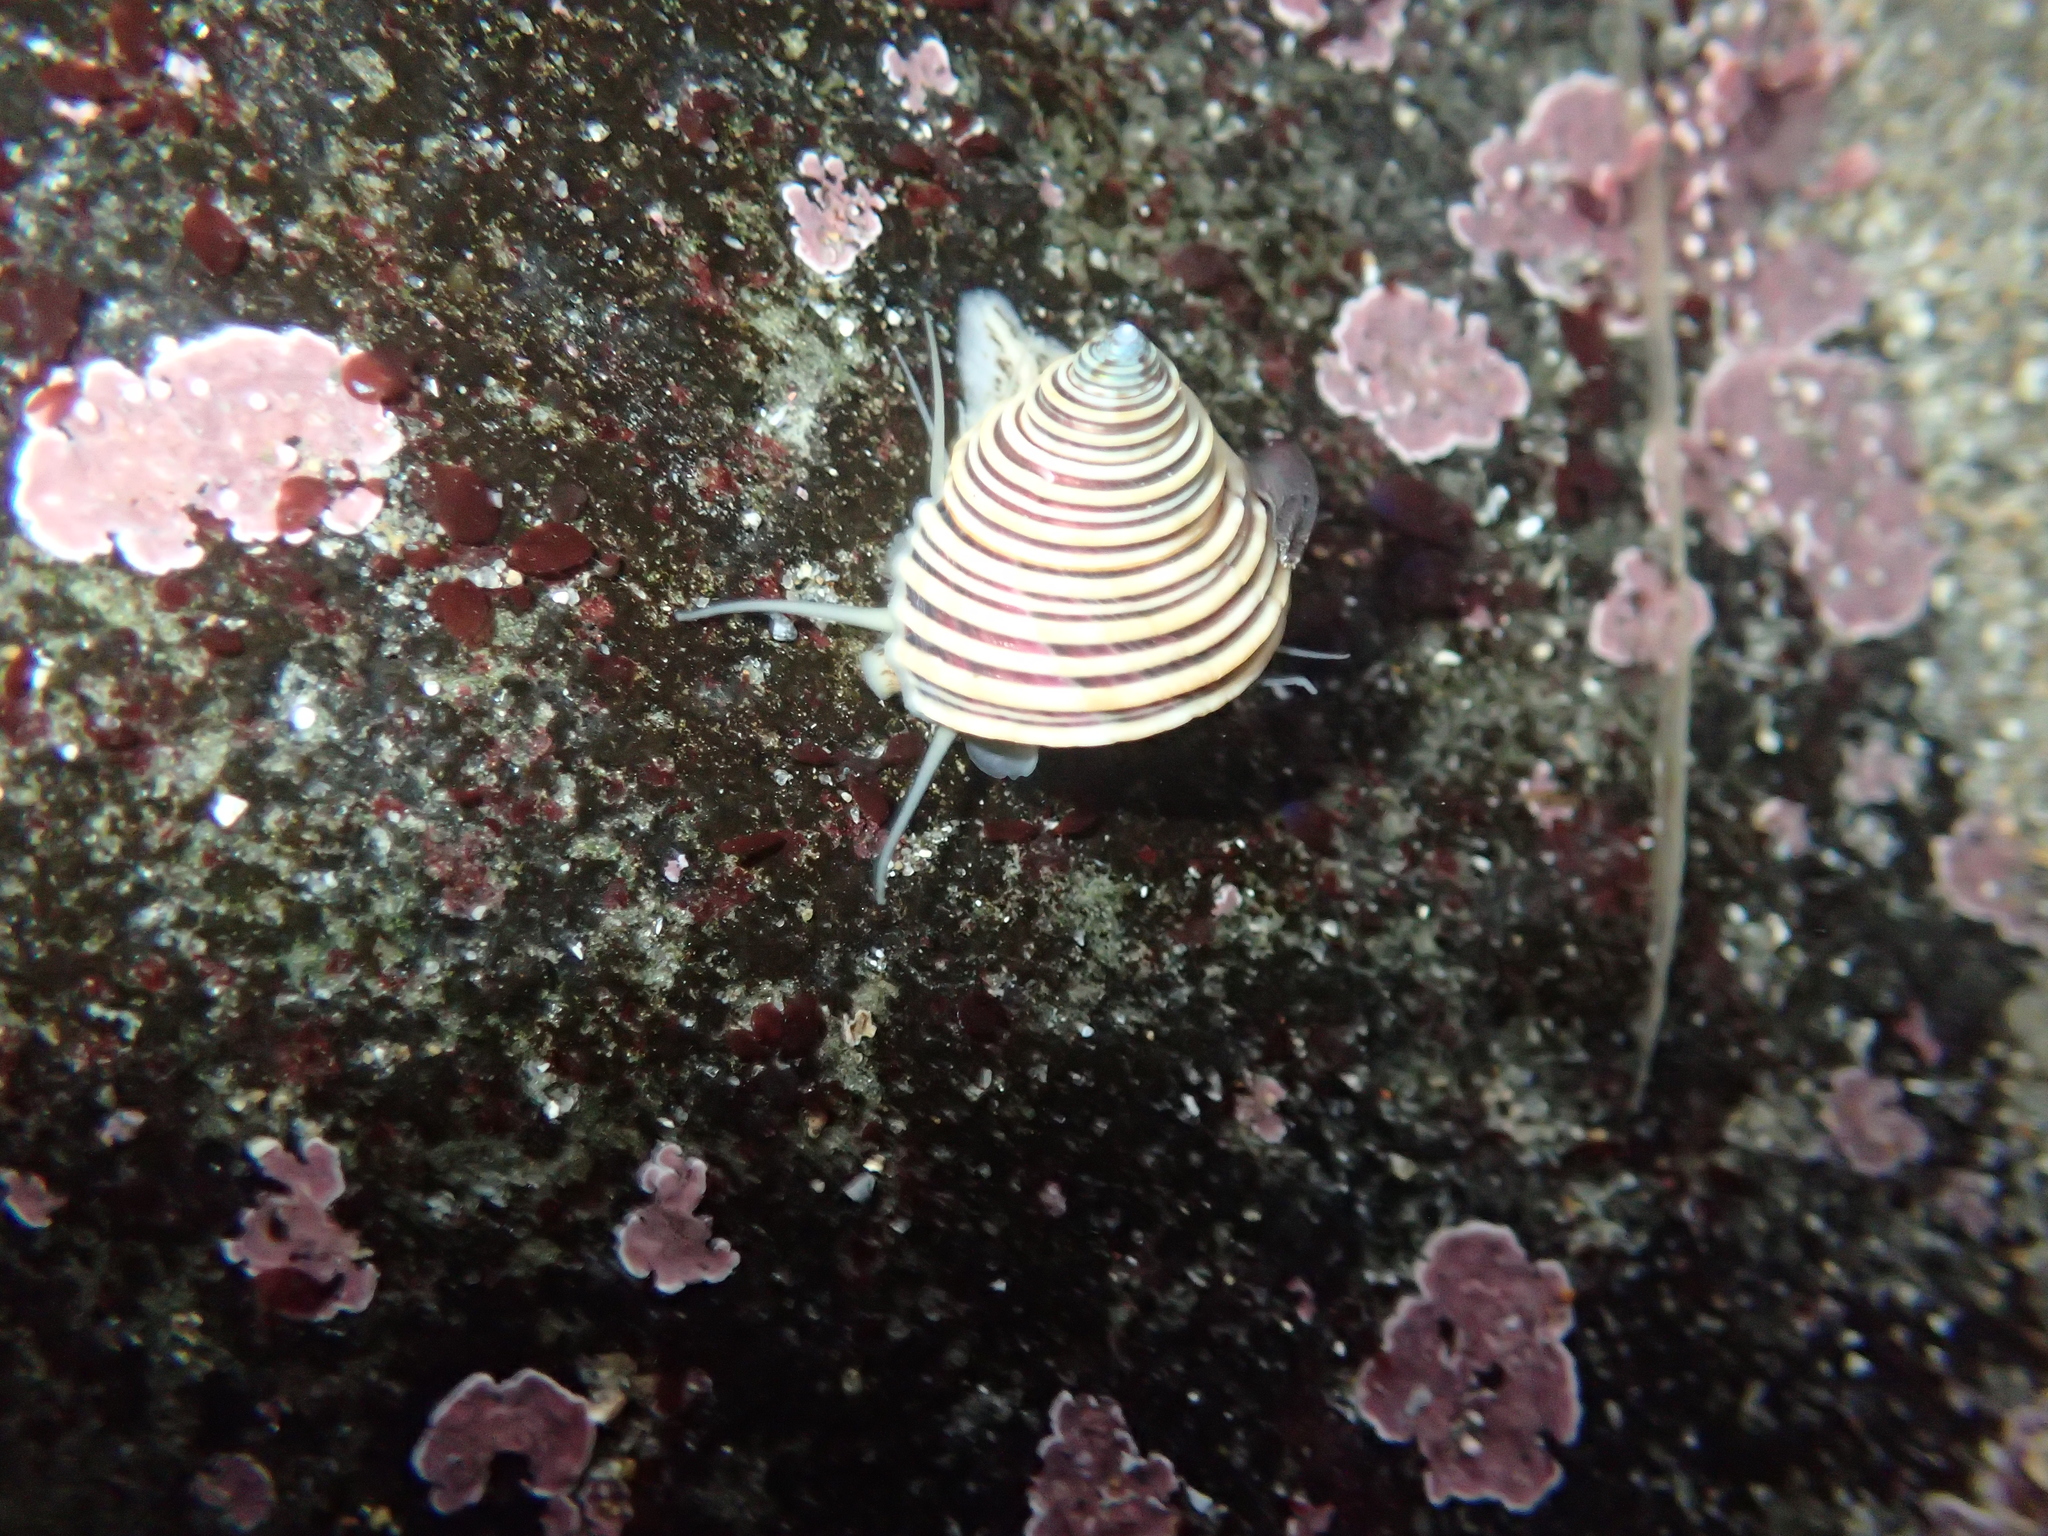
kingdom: Animalia
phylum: Mollusca
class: Gastropoda
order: Trochida
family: Calliostomatidae
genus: Calliostoma
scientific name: Calliostoma canaliculatum
